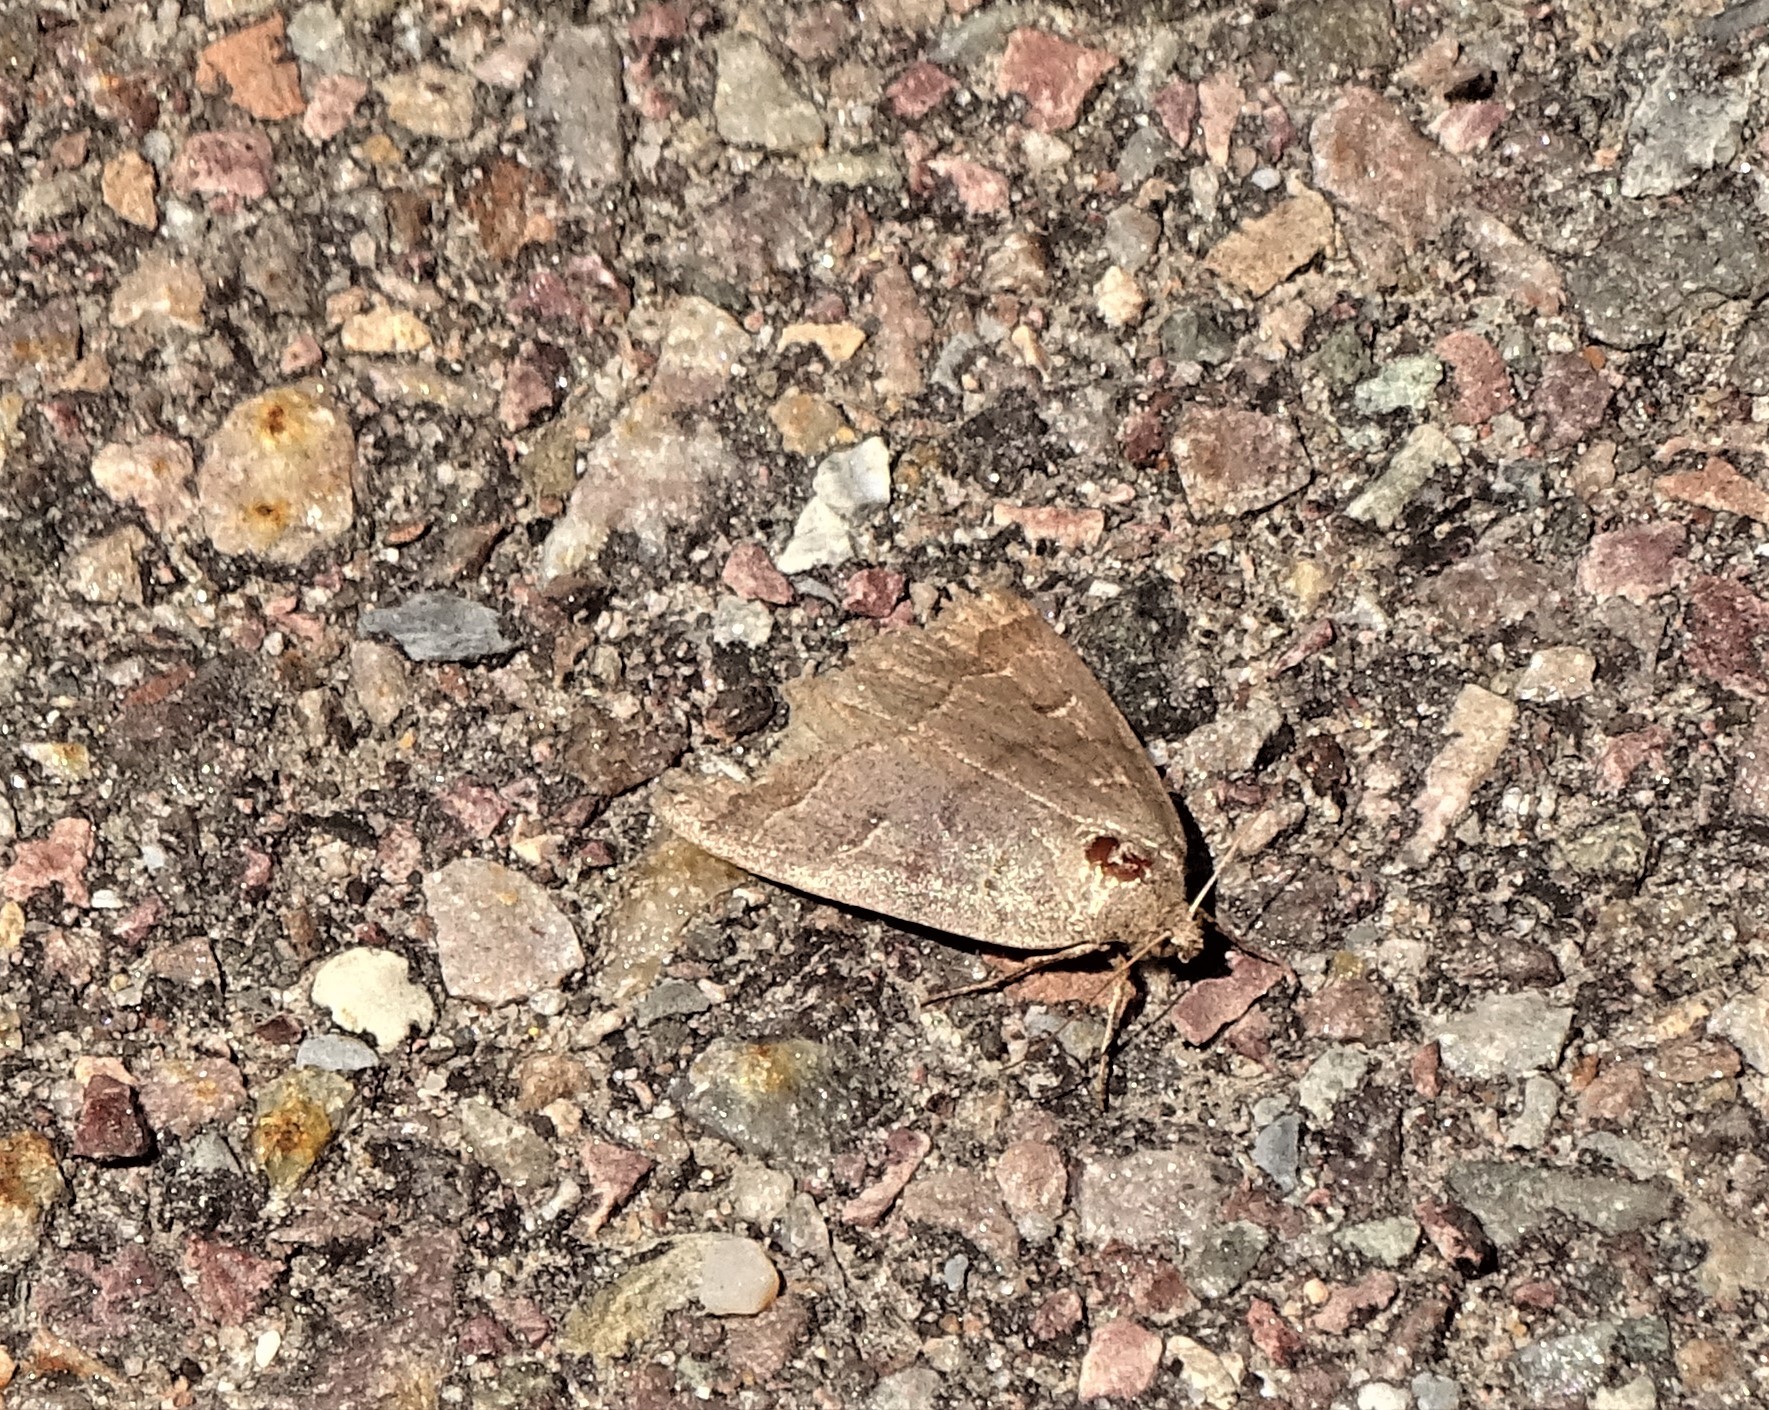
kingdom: Animalia
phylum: Arthropoda
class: Insecta
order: Lepidoptera
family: Erebidae
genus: Phoberia
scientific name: Phoberia atomaris
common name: Common oak moth
